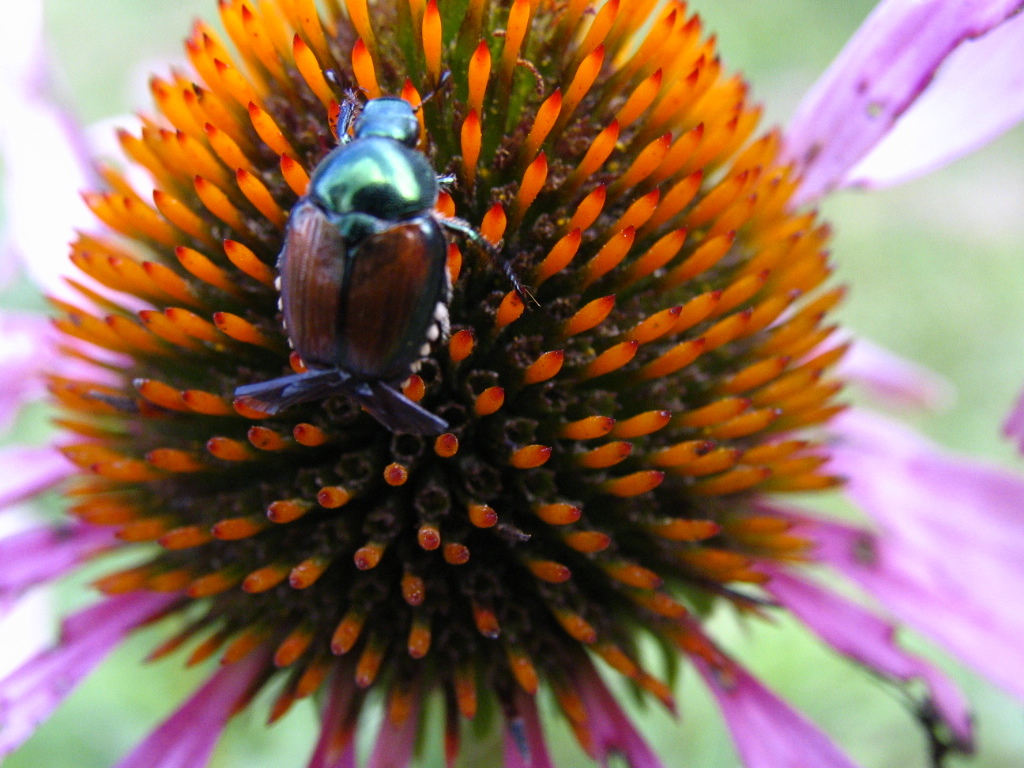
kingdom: Animalia
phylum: Arthropoda
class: Insecta
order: Coleoptera
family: Scarabaeidae
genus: Popillia
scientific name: Popillia japonica
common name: Japanese beetle
